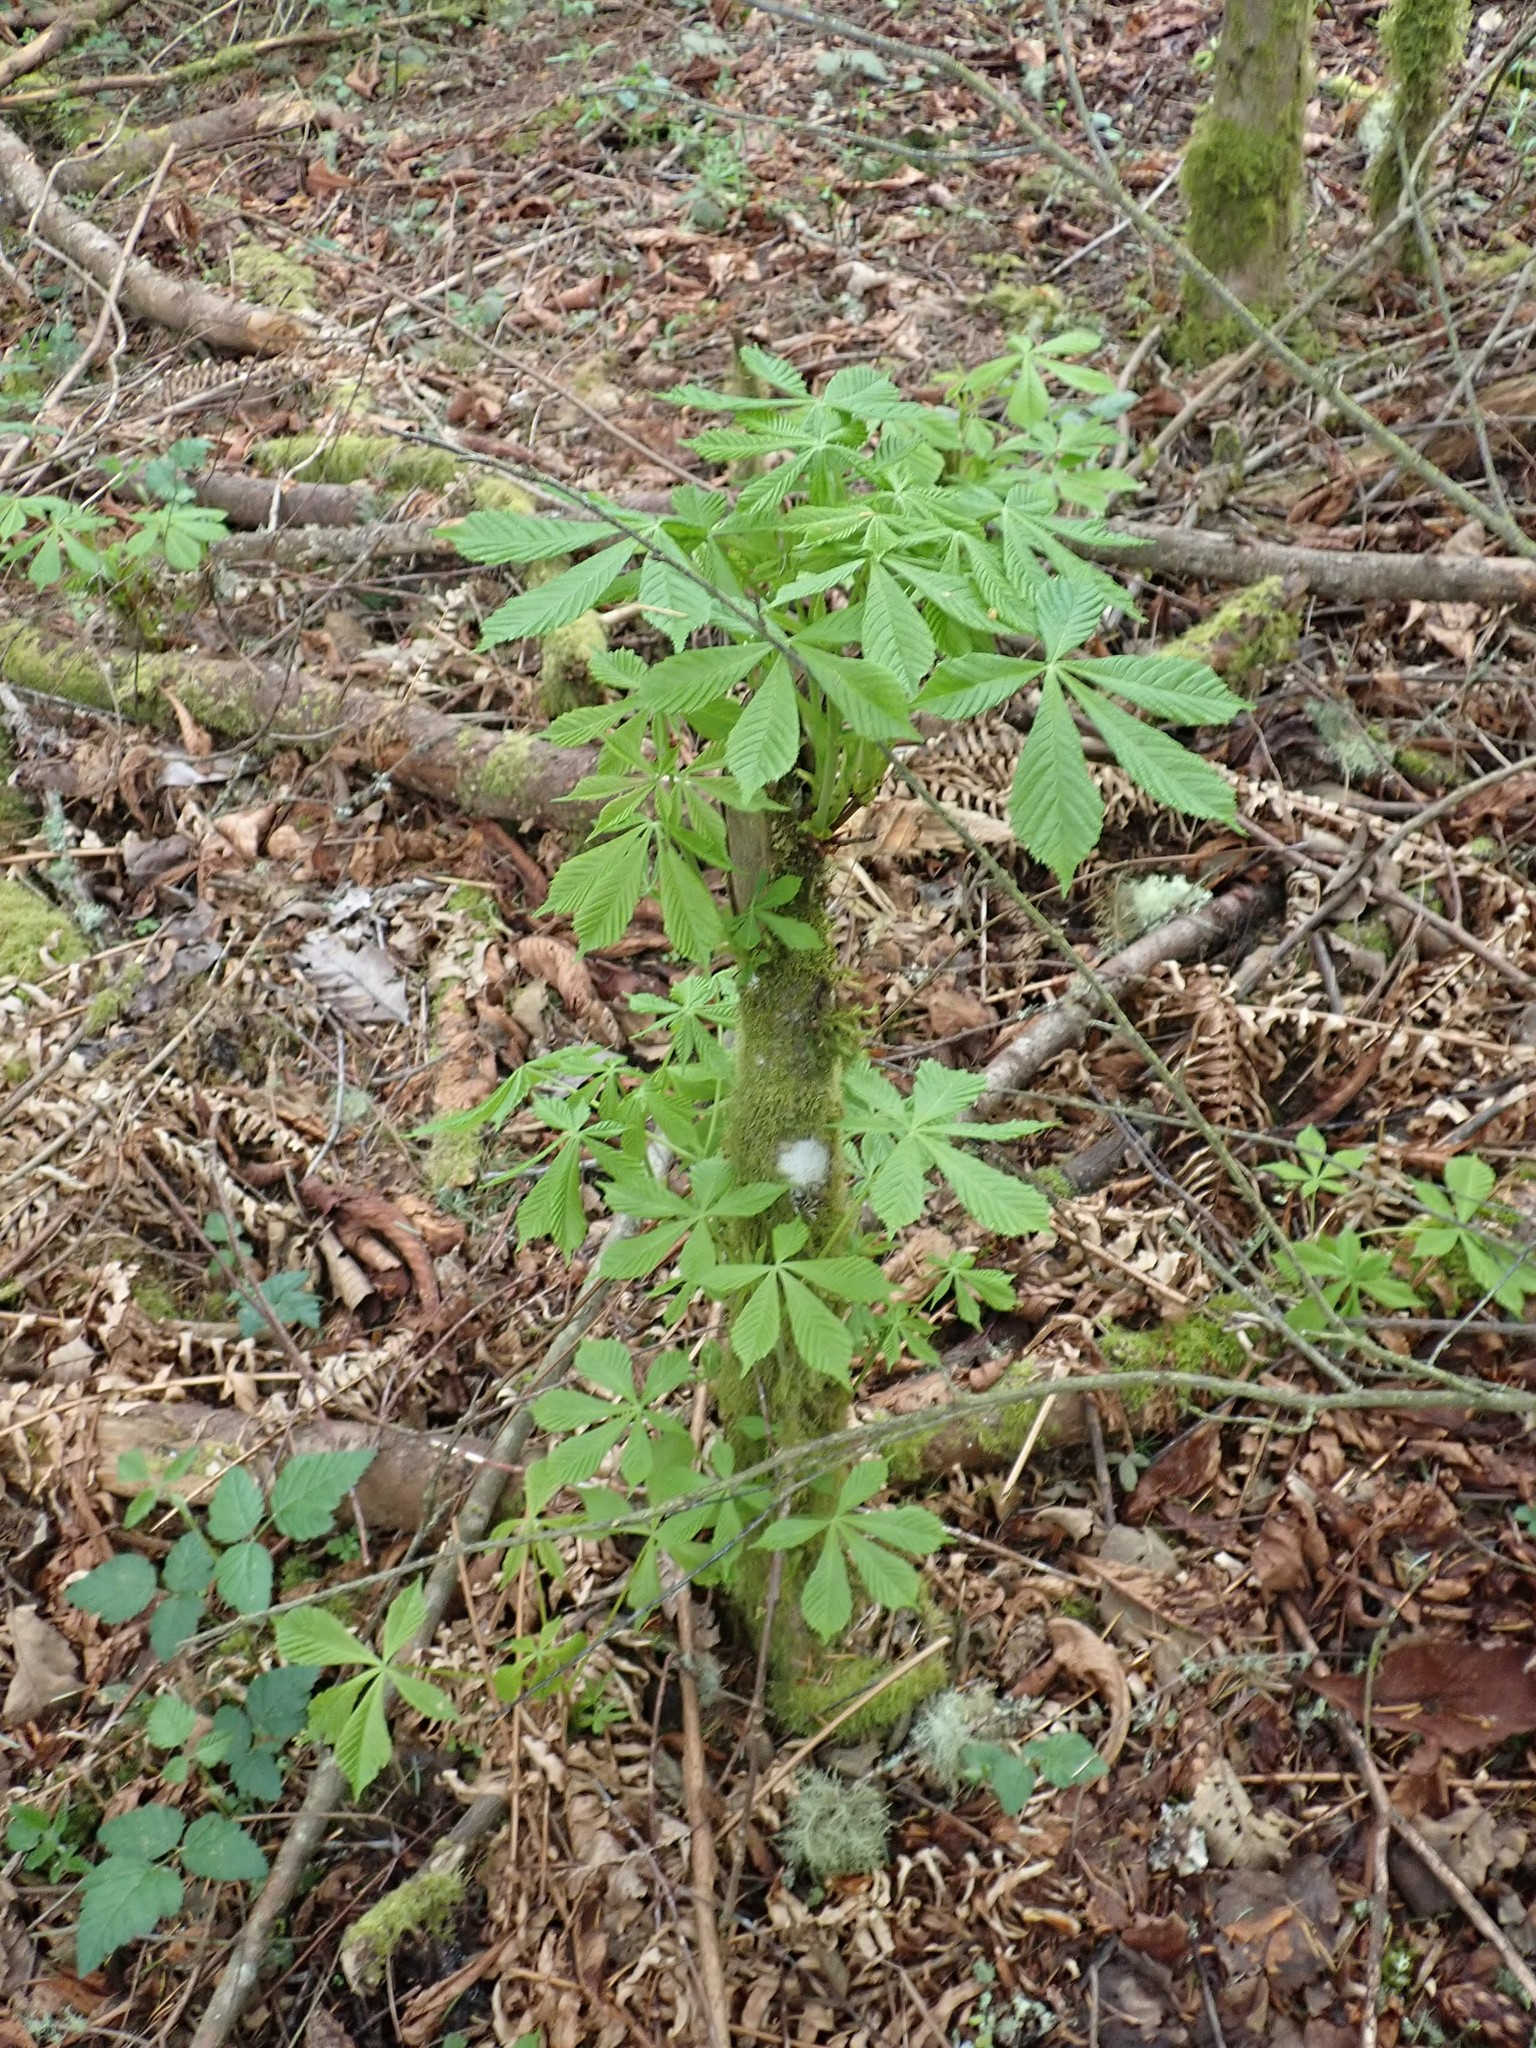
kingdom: Plantae
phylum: Tracheophyta
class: Magnoliopsida
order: Sapindales
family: Sapindaceae
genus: Aesculus
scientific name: Aesculus hippocastanum
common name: Horse-chestnut
